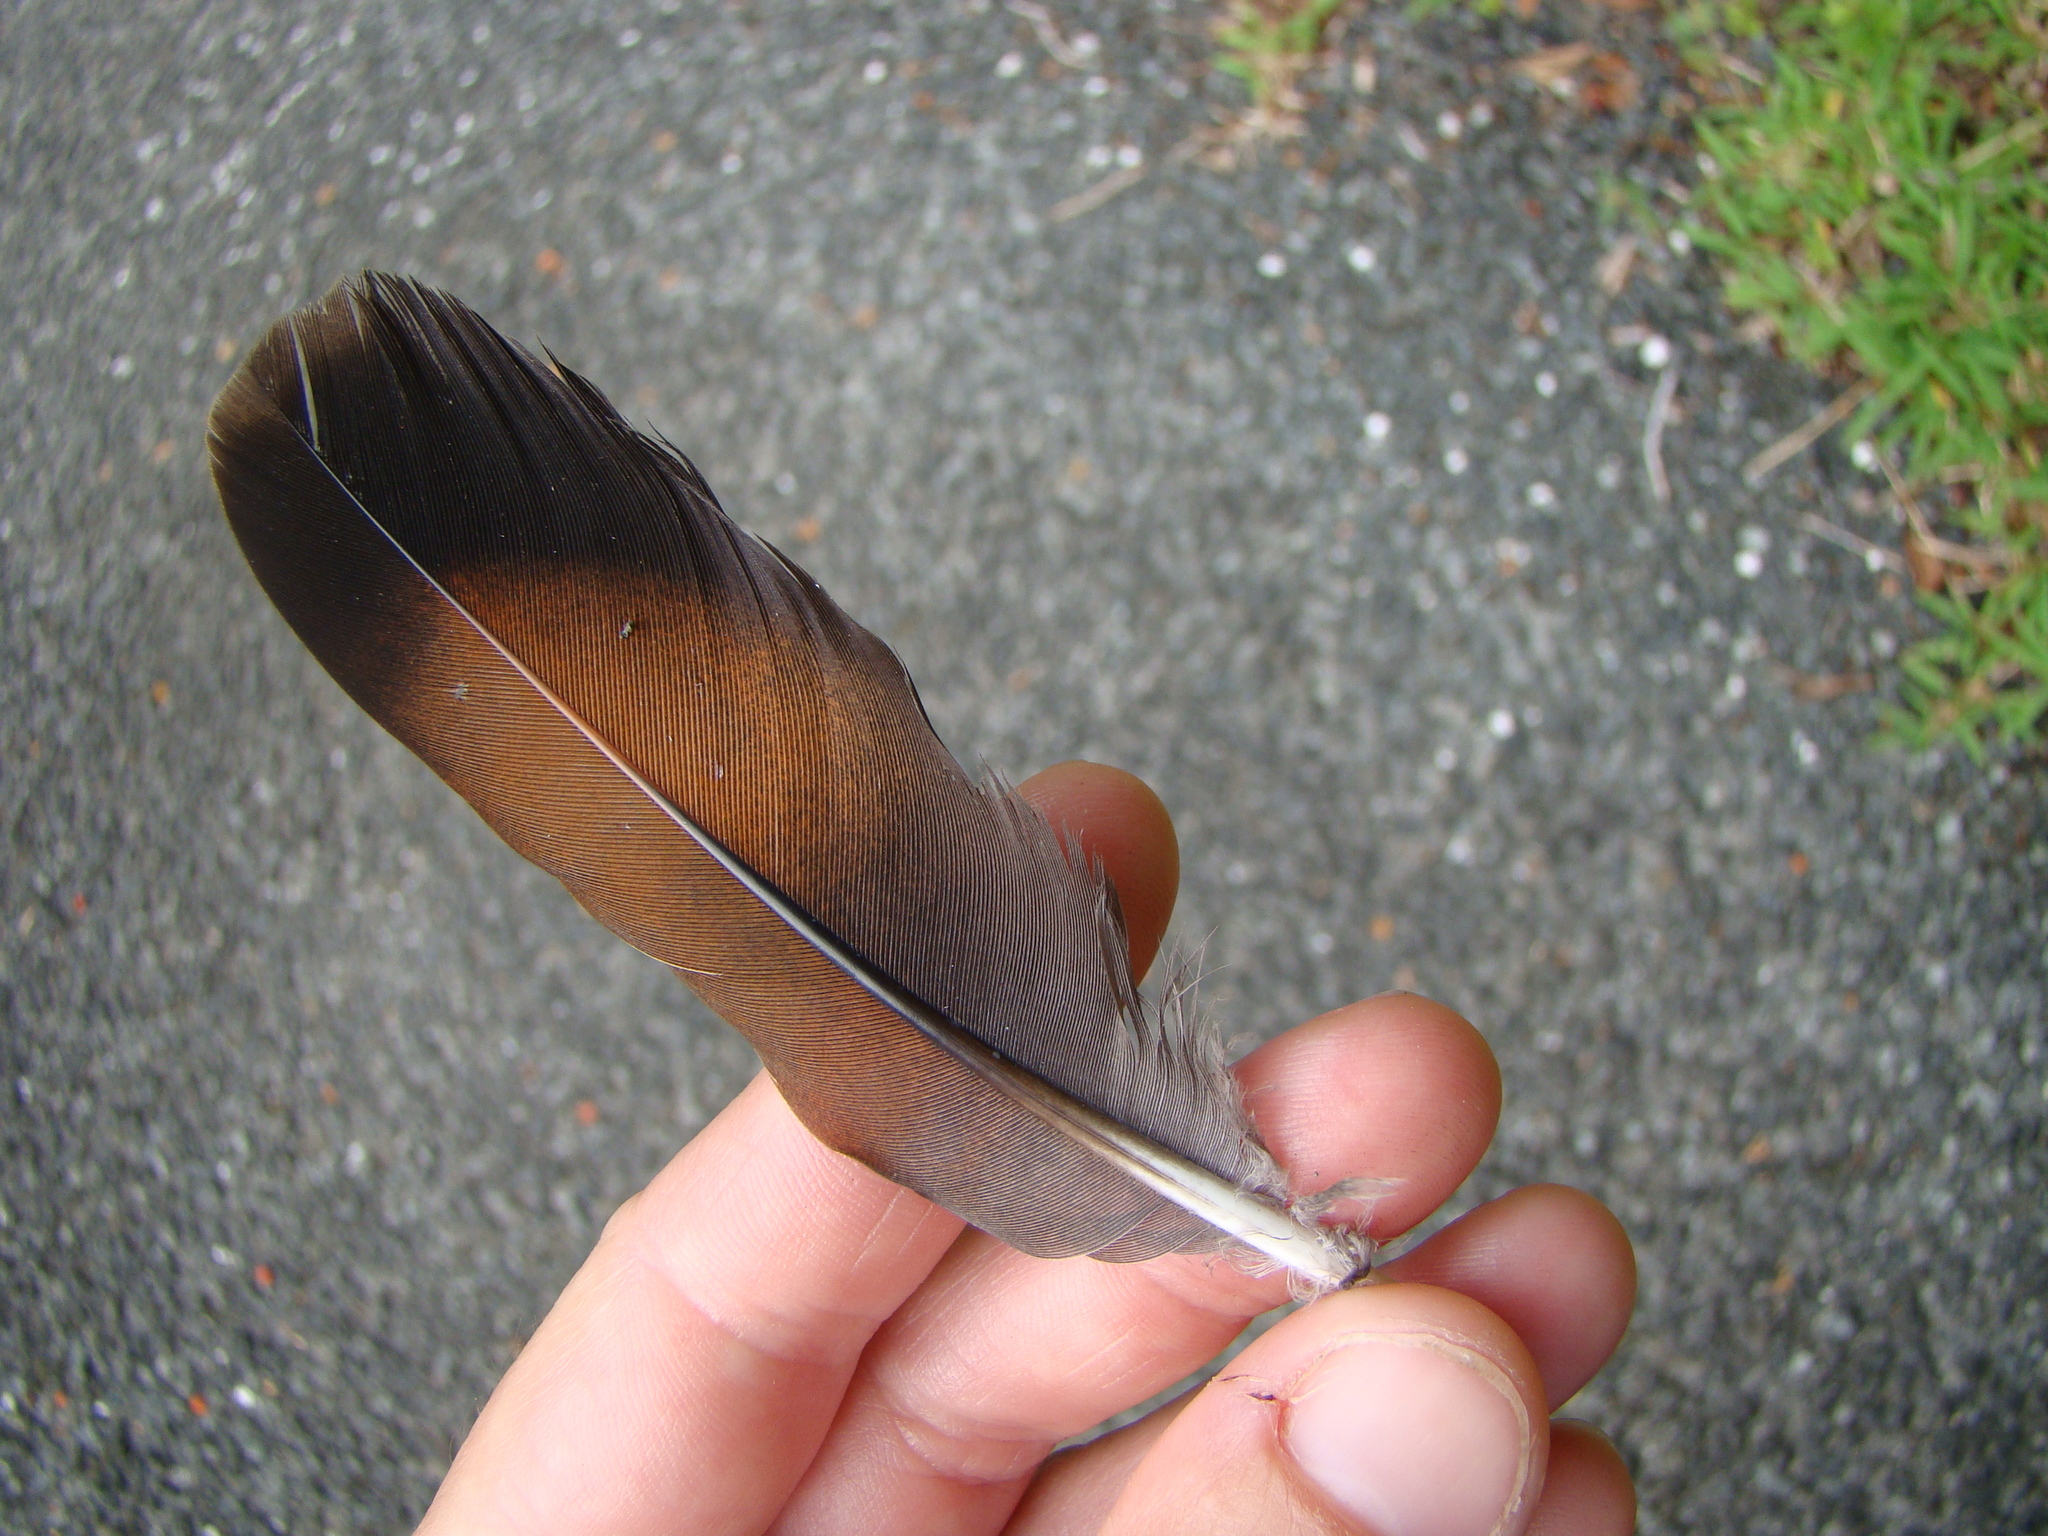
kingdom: Animalia
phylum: Chordata
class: Aves
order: Columbiformes
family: Columbidae
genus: Chalcophaps
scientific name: Chalcophaps longirostris
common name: Pacific emerald dove
